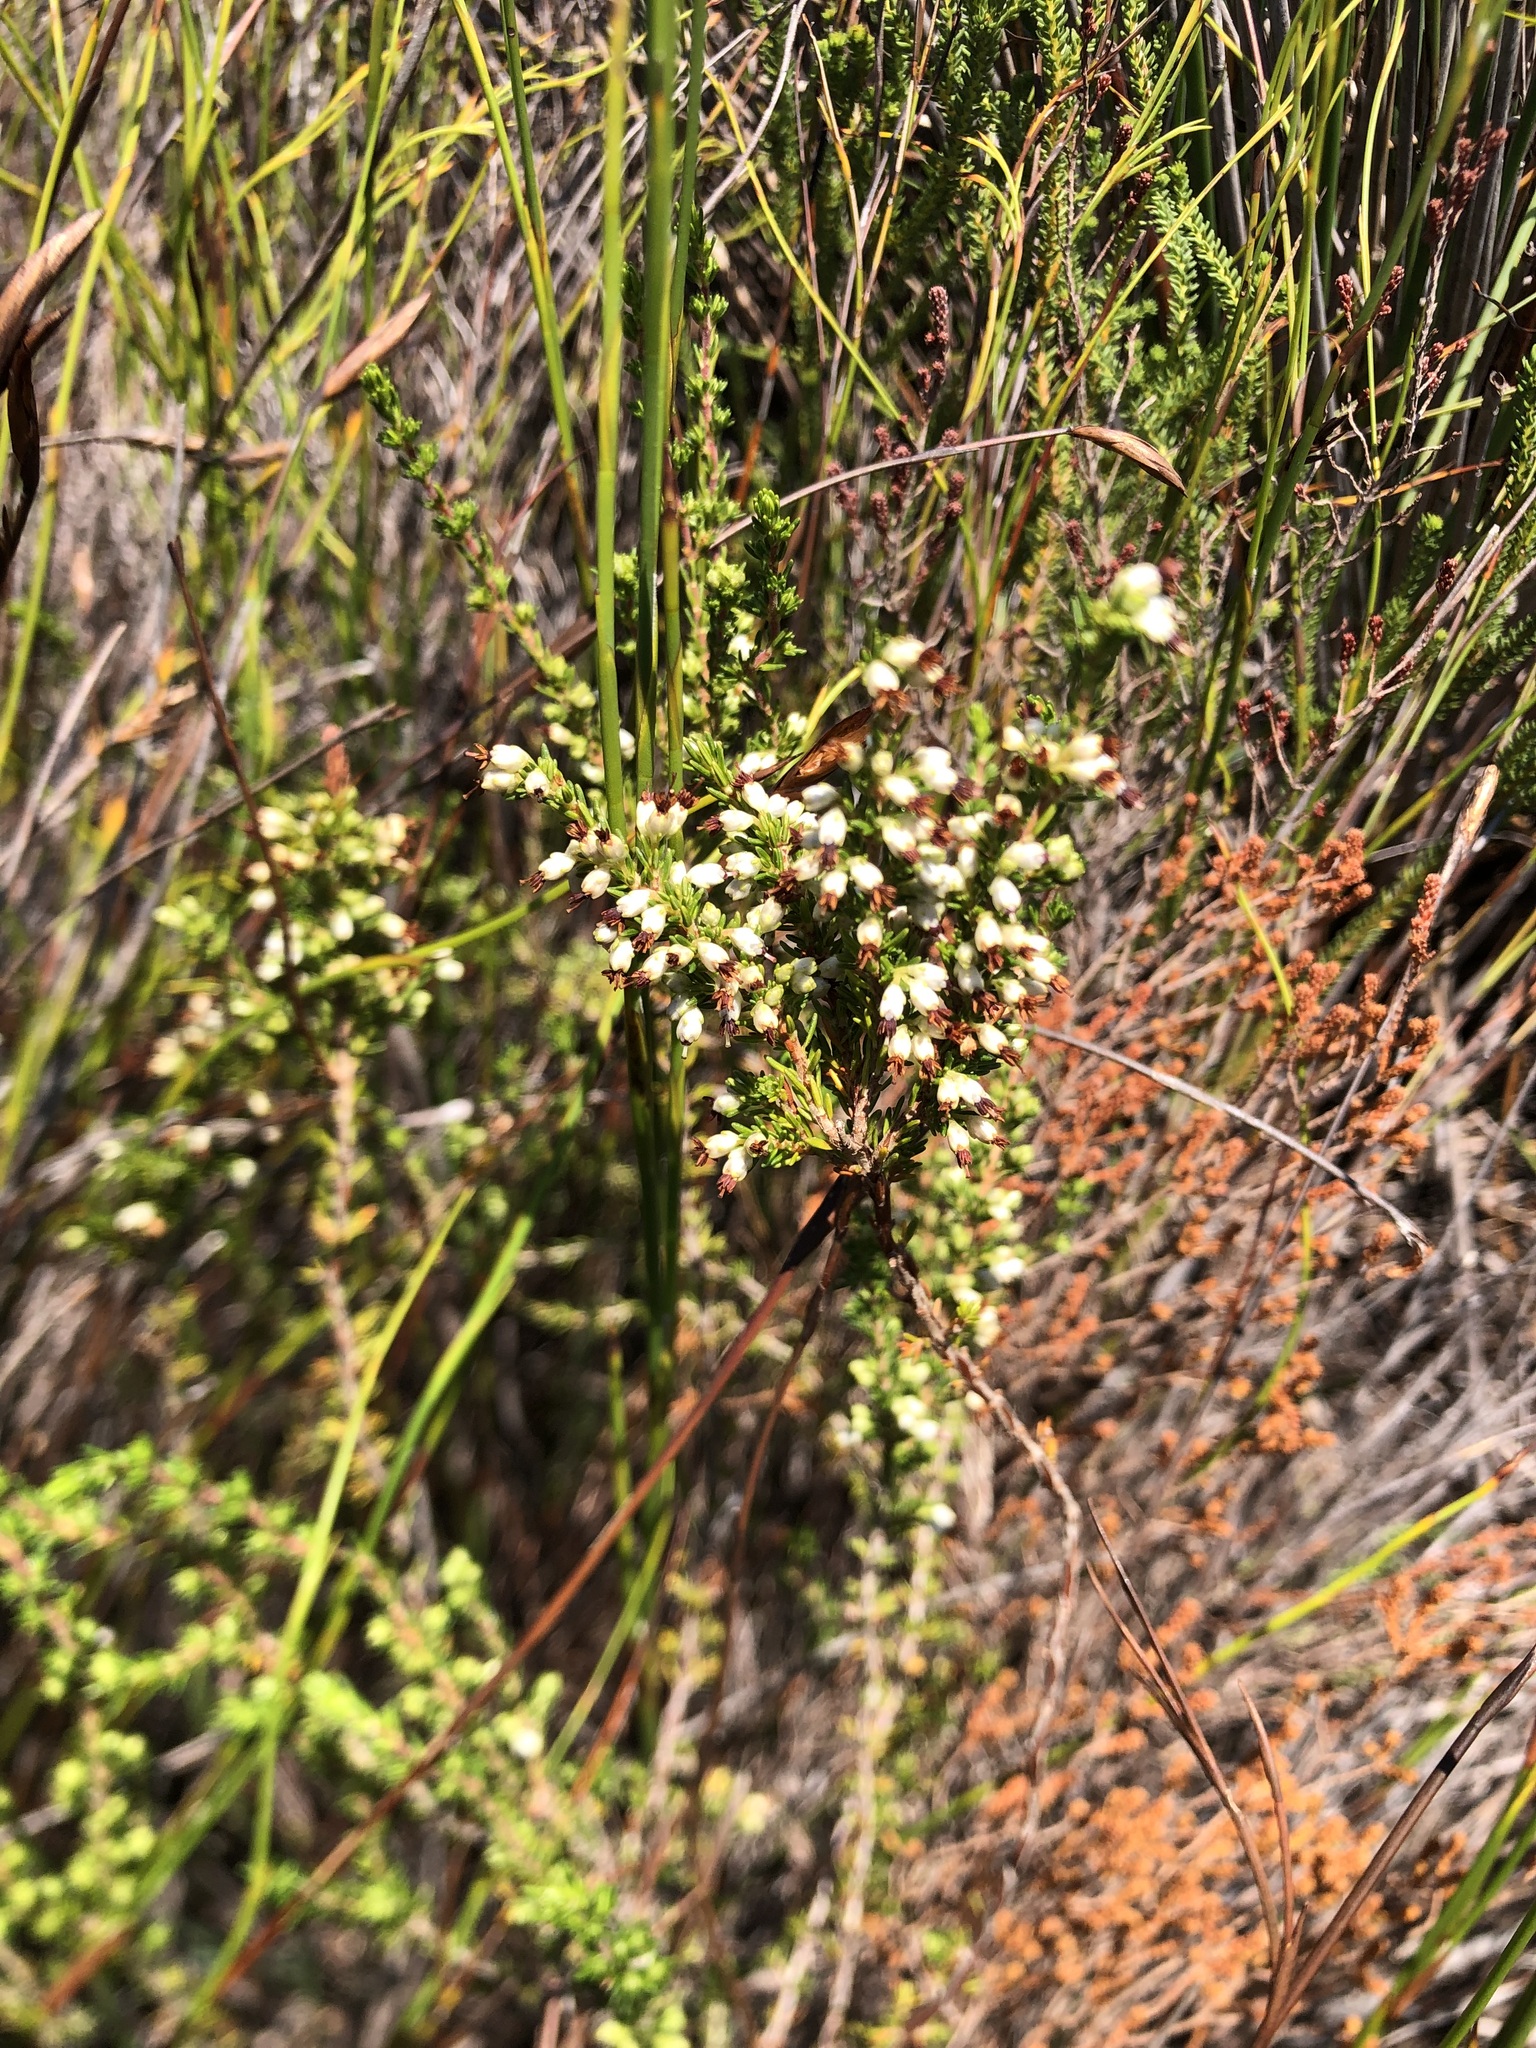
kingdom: Plantae
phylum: Tracheophyta
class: Magnoliopsida
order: Ericales
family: Ericaceae
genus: Erica
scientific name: Erica lasciva
